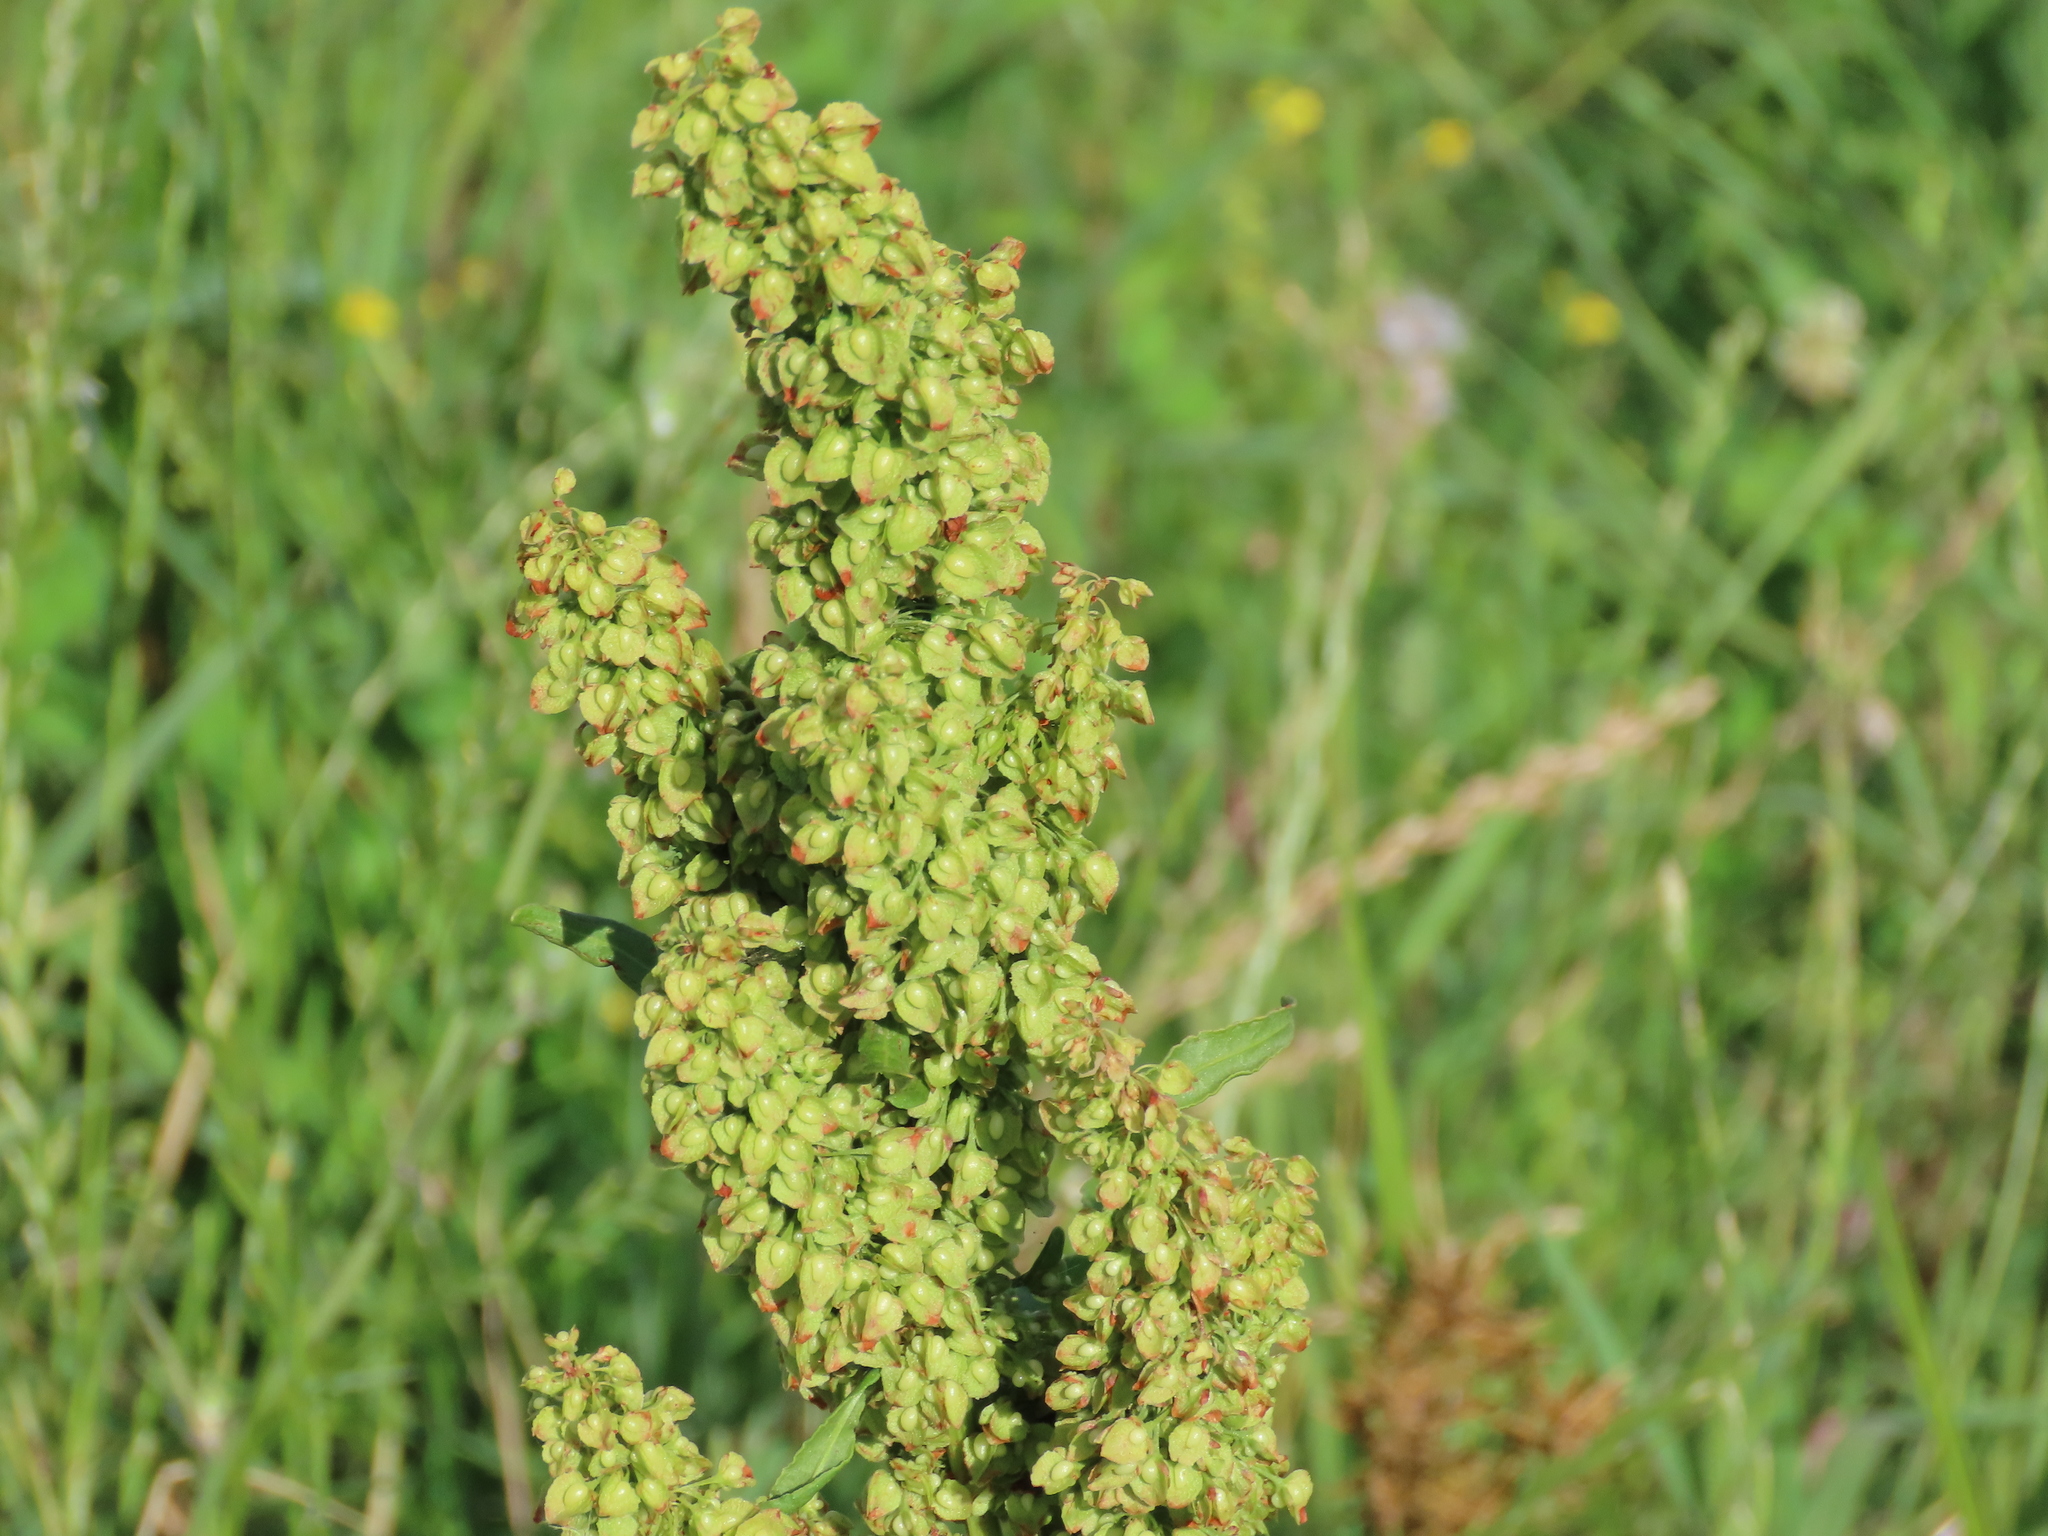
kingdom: Plantae
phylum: Tracheophyta
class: Magnoliopsida
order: Caryophyllales
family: Polygonaceae
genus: Rumex
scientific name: Rumex crispus
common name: Curled dock
